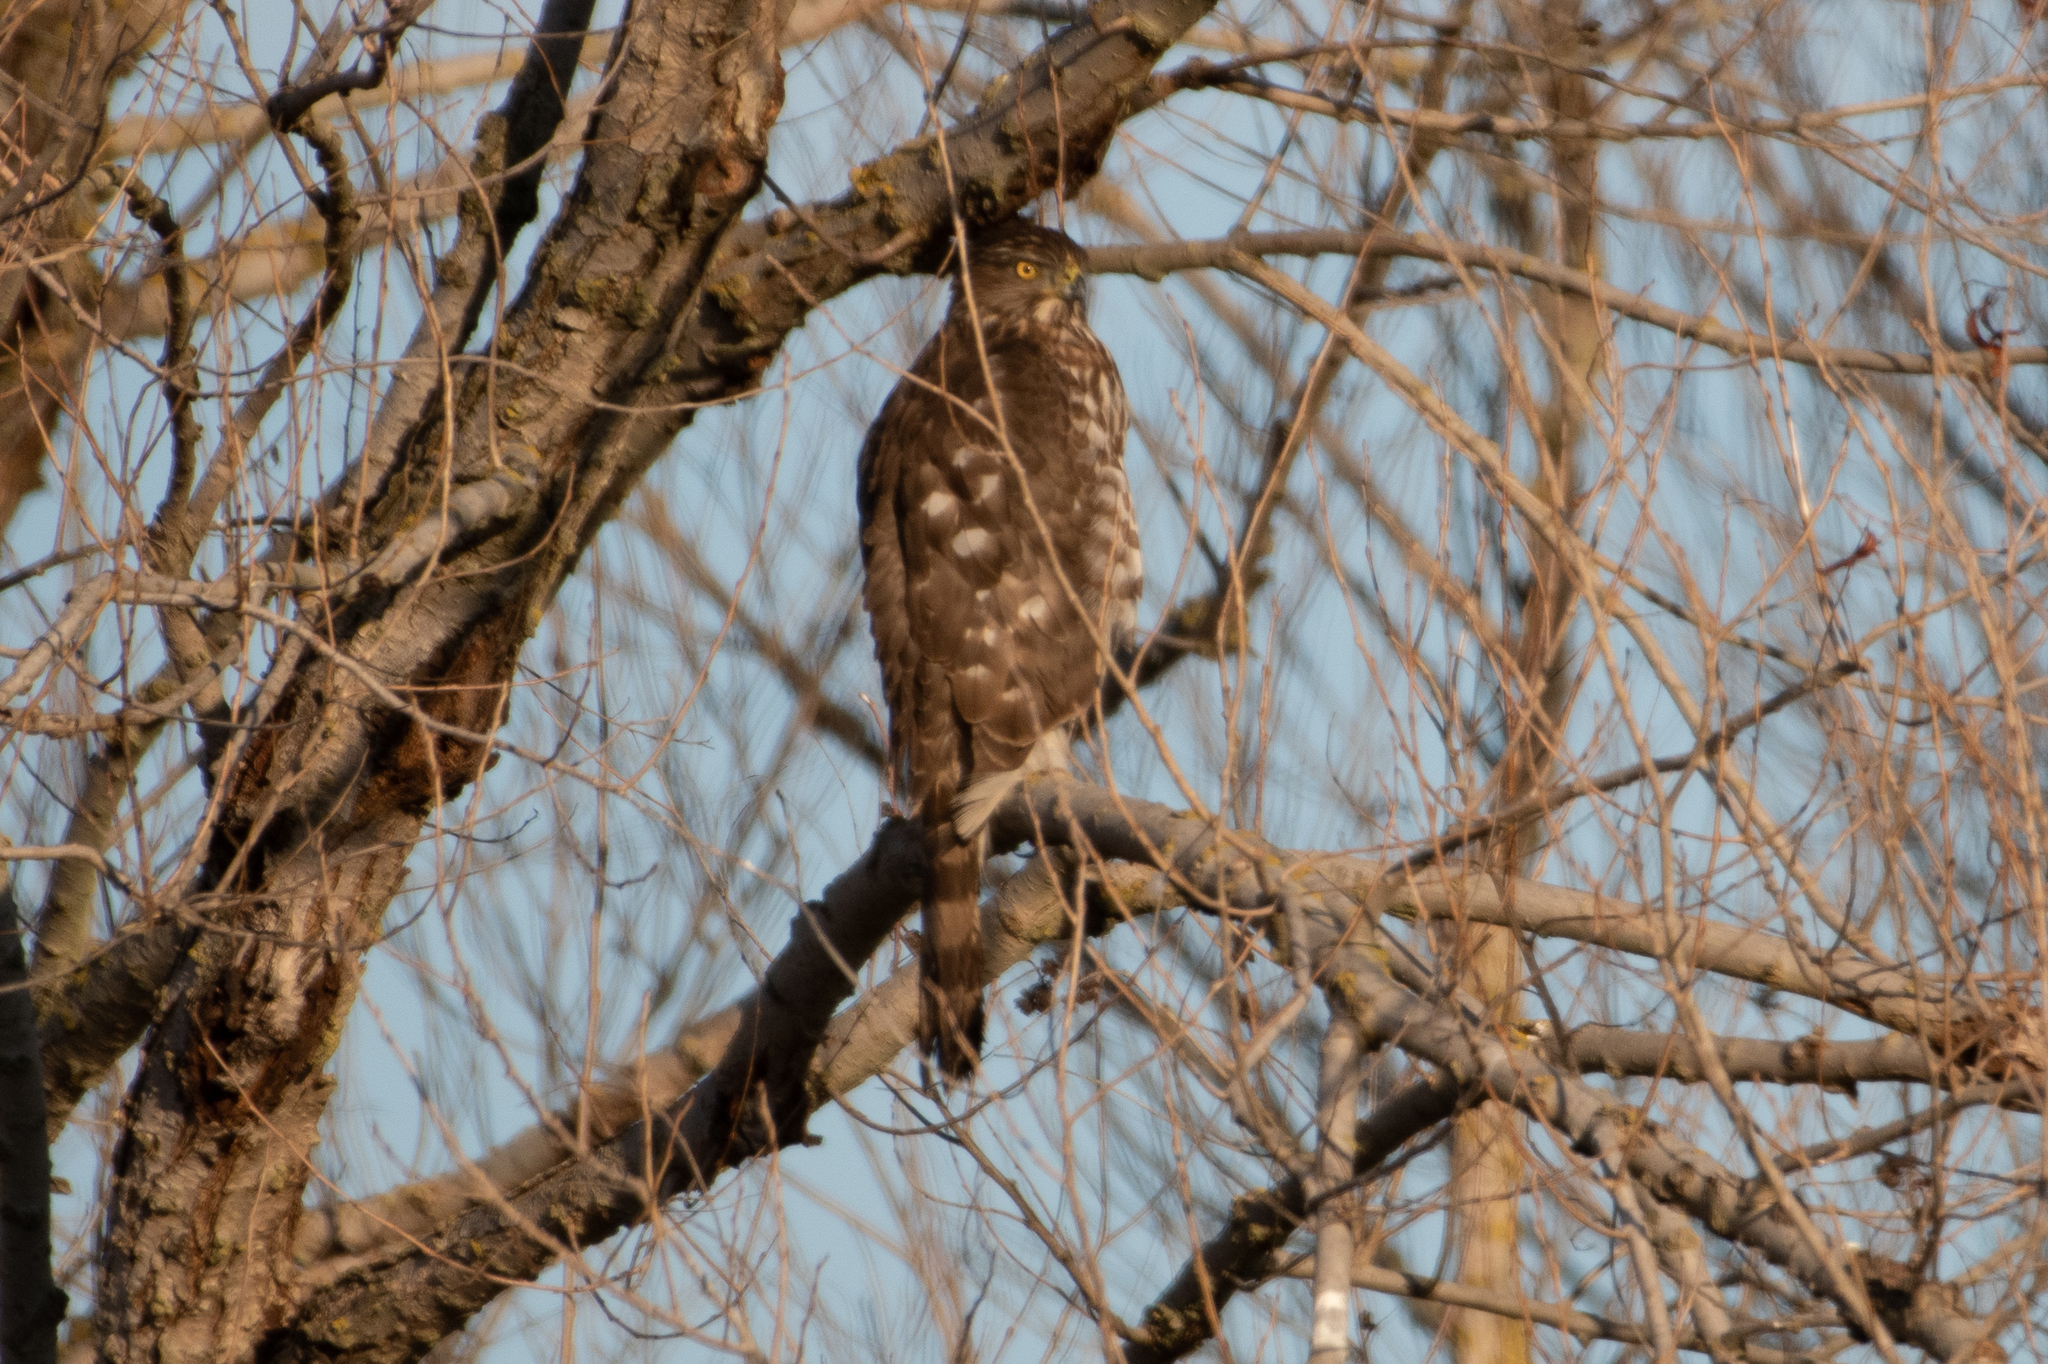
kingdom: Animalia
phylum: Chordata
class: Aves
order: Accipitriformes
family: Accipitridae
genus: Accipiter
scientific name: Accipiter cooperii
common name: Cooper's hawk
